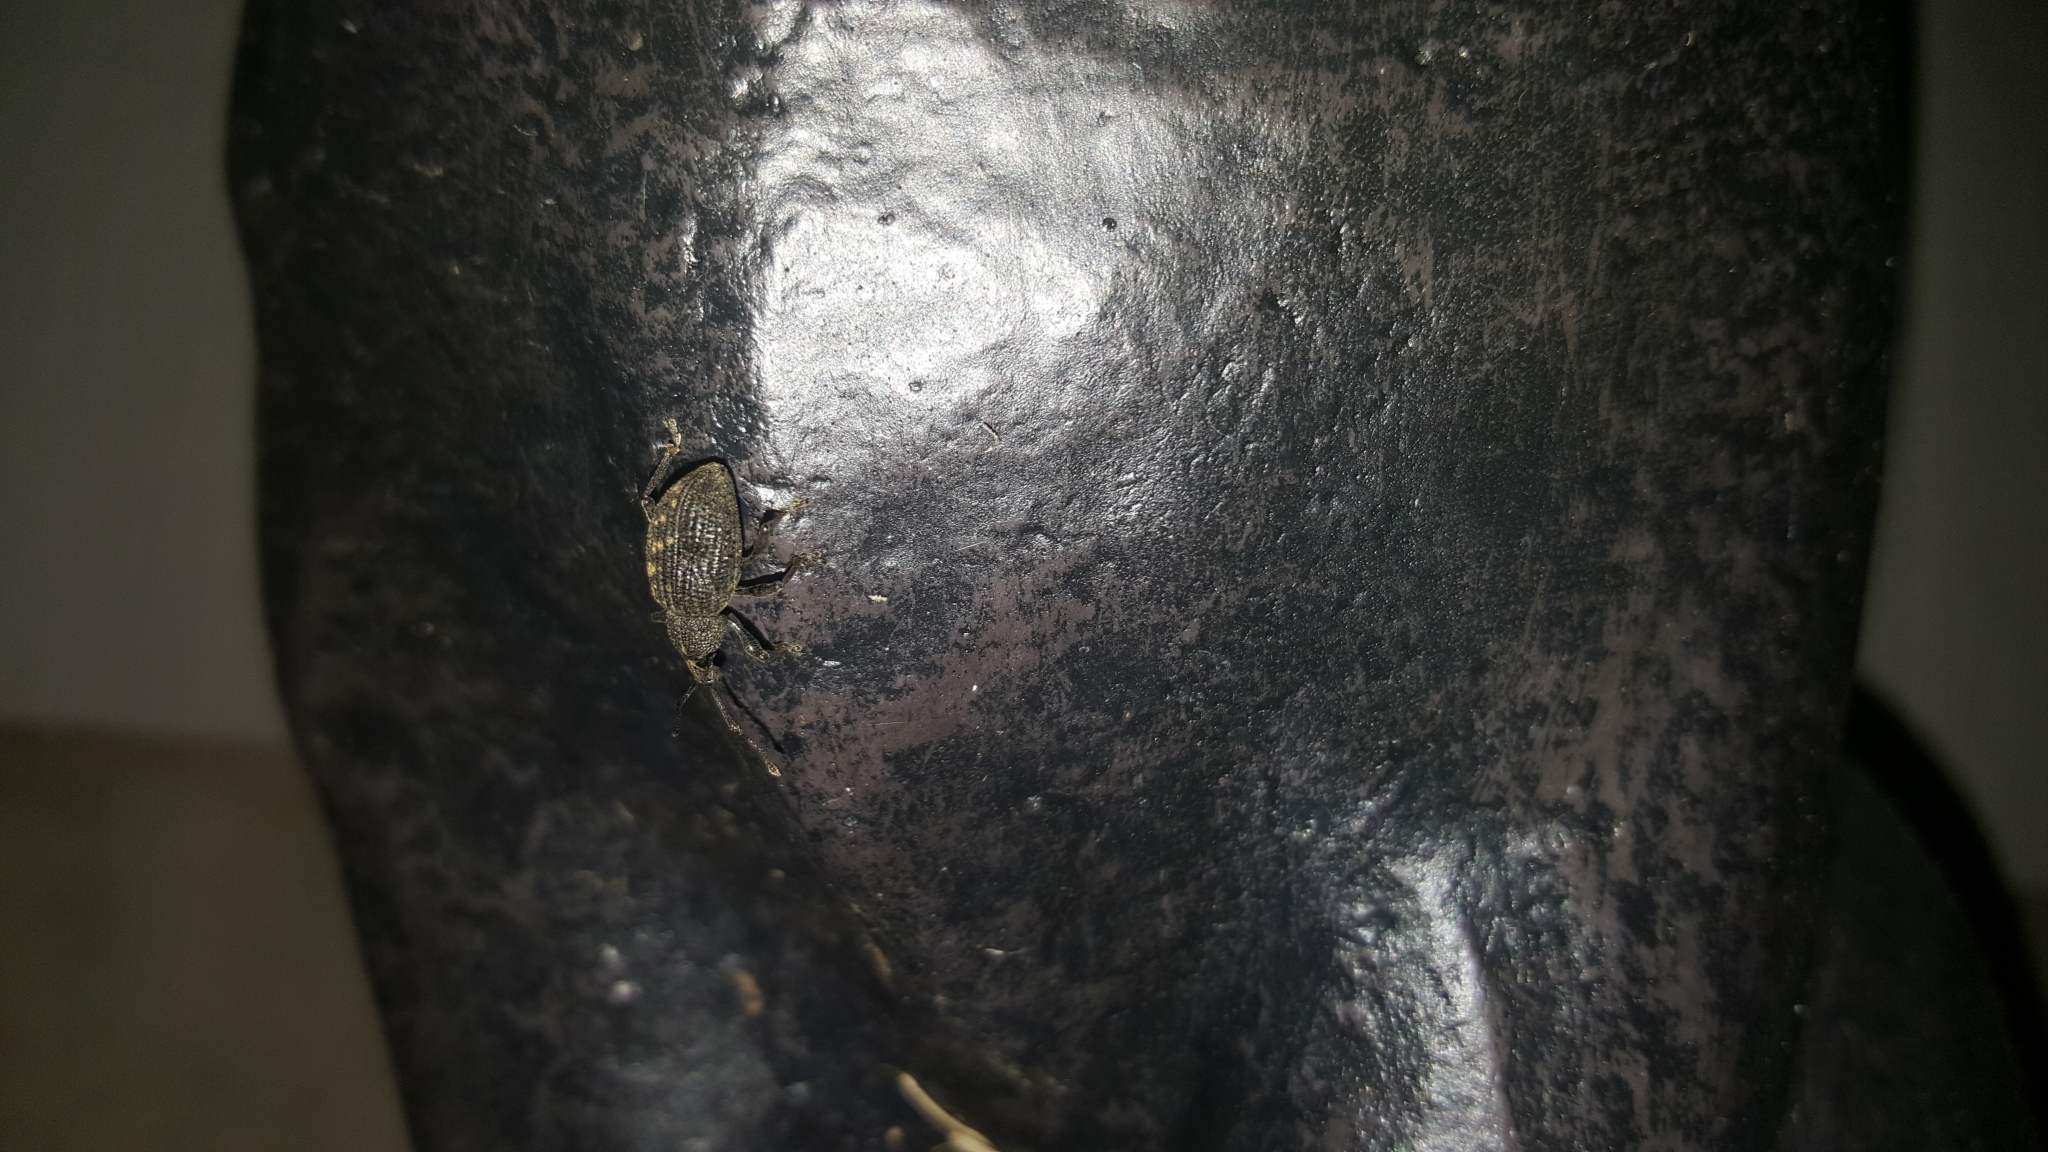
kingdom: Animalia
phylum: Arthropoda
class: Insecta
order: Coleoptera
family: Curculionidae
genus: Otiorhynchus
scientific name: Otiorhynchus sulcatus
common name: Black vine weevil
